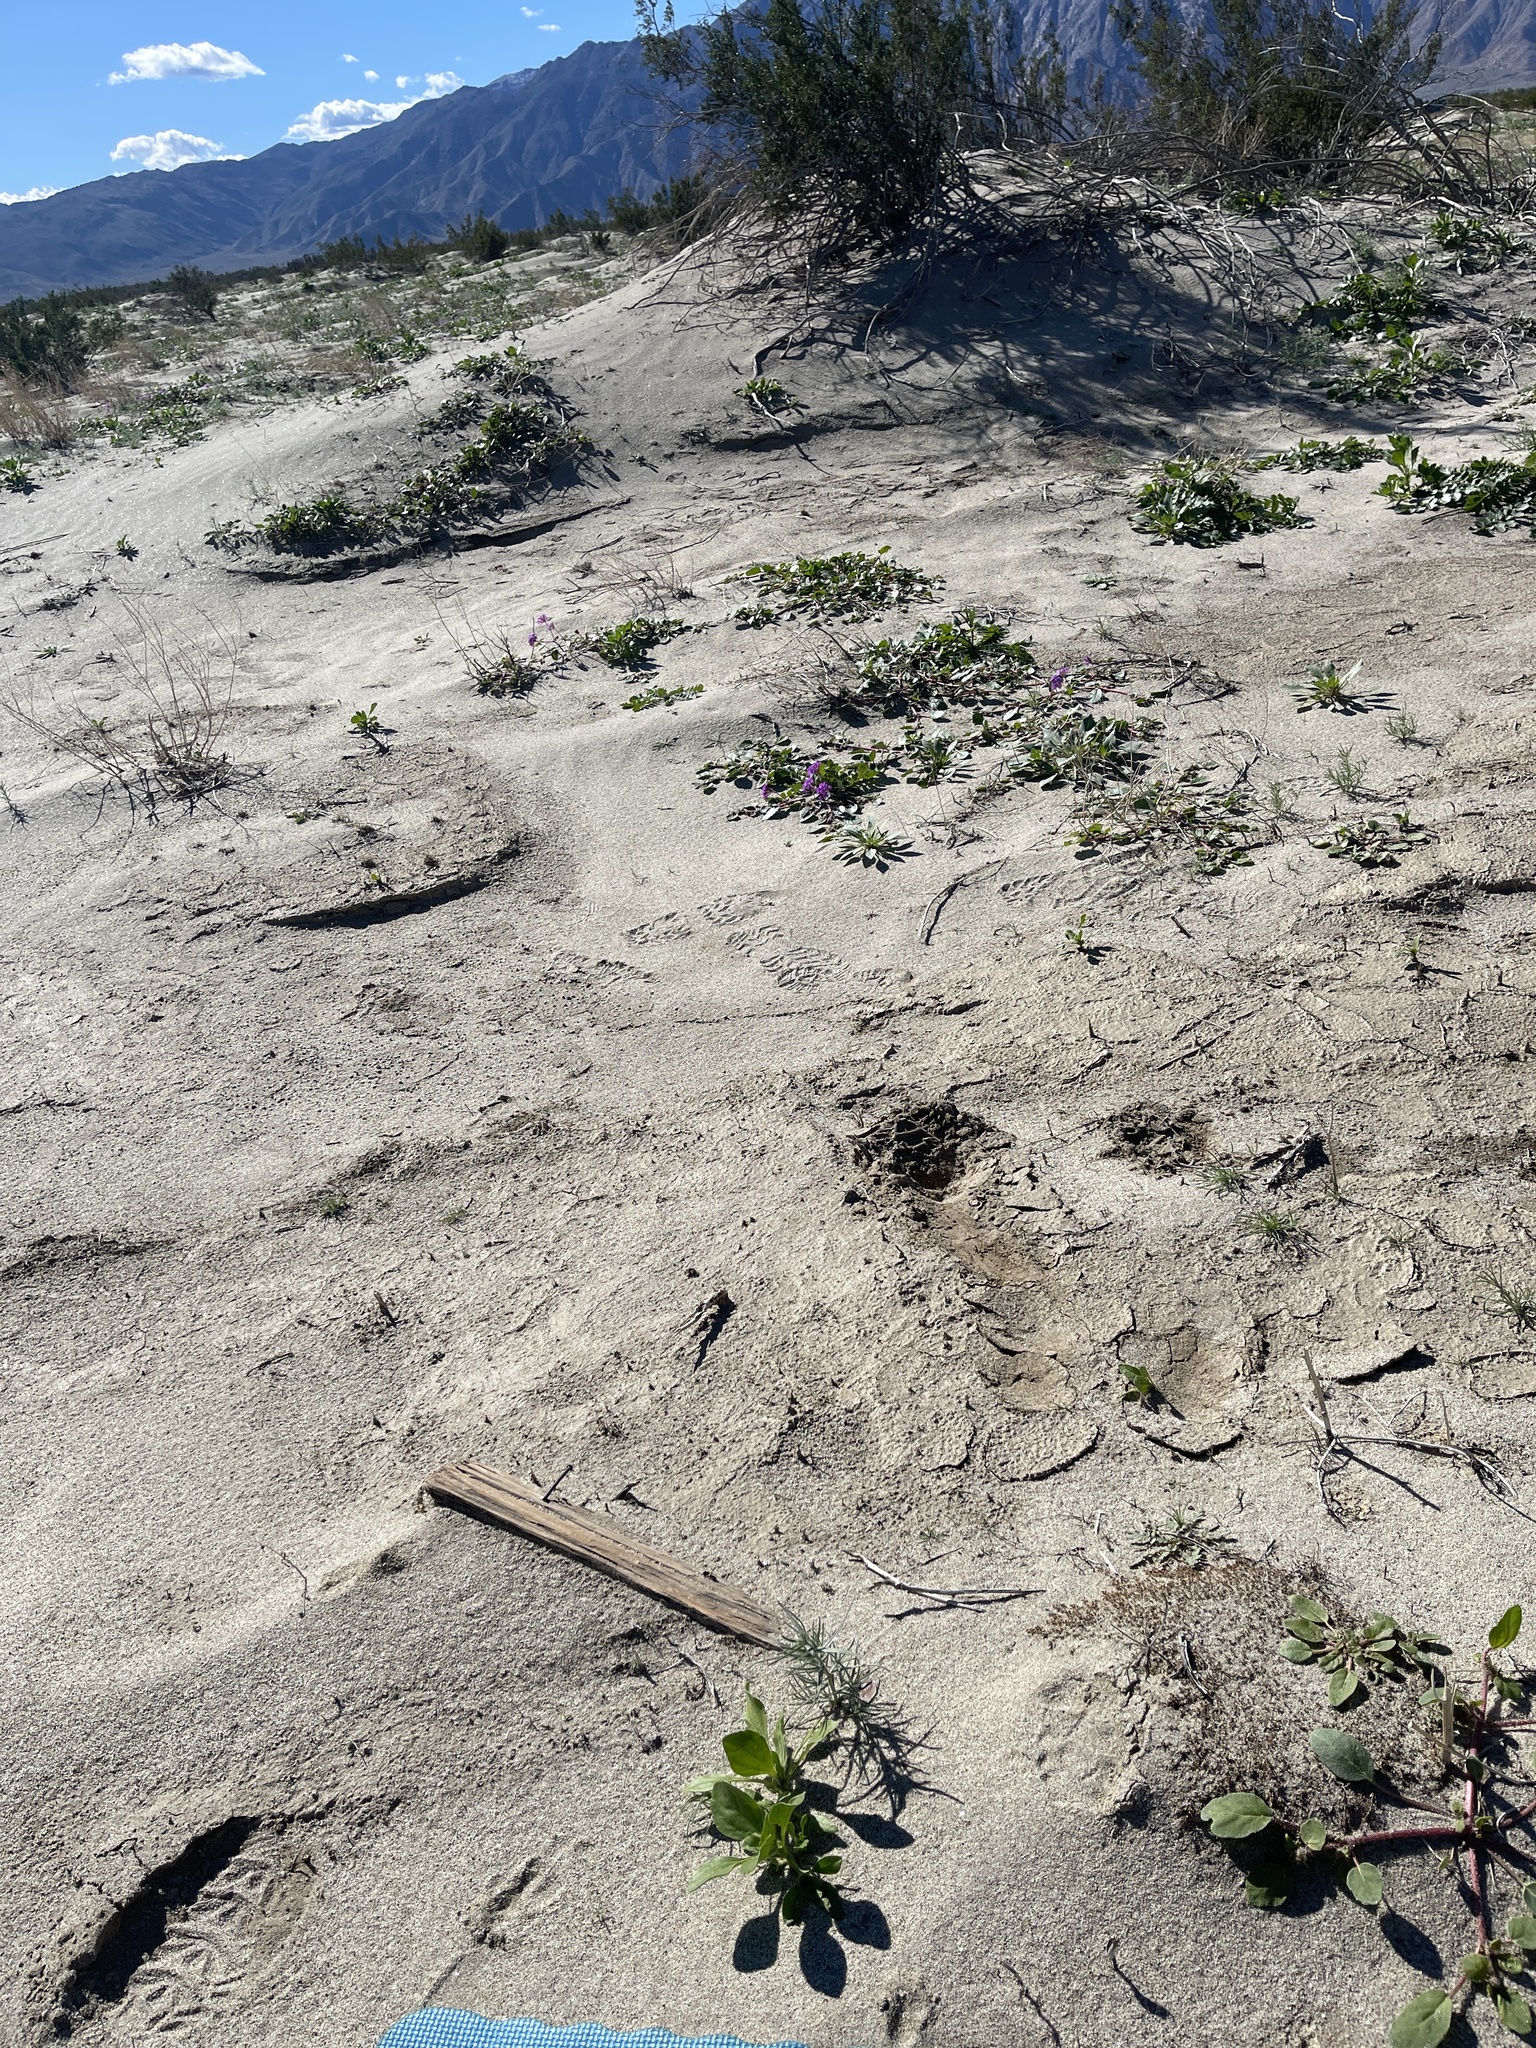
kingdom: Plantae
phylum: Tracheophyta
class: Magnoliopsida
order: Boraginales
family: Boraginaceae
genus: Johnstonella
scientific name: Johnstonella costata
